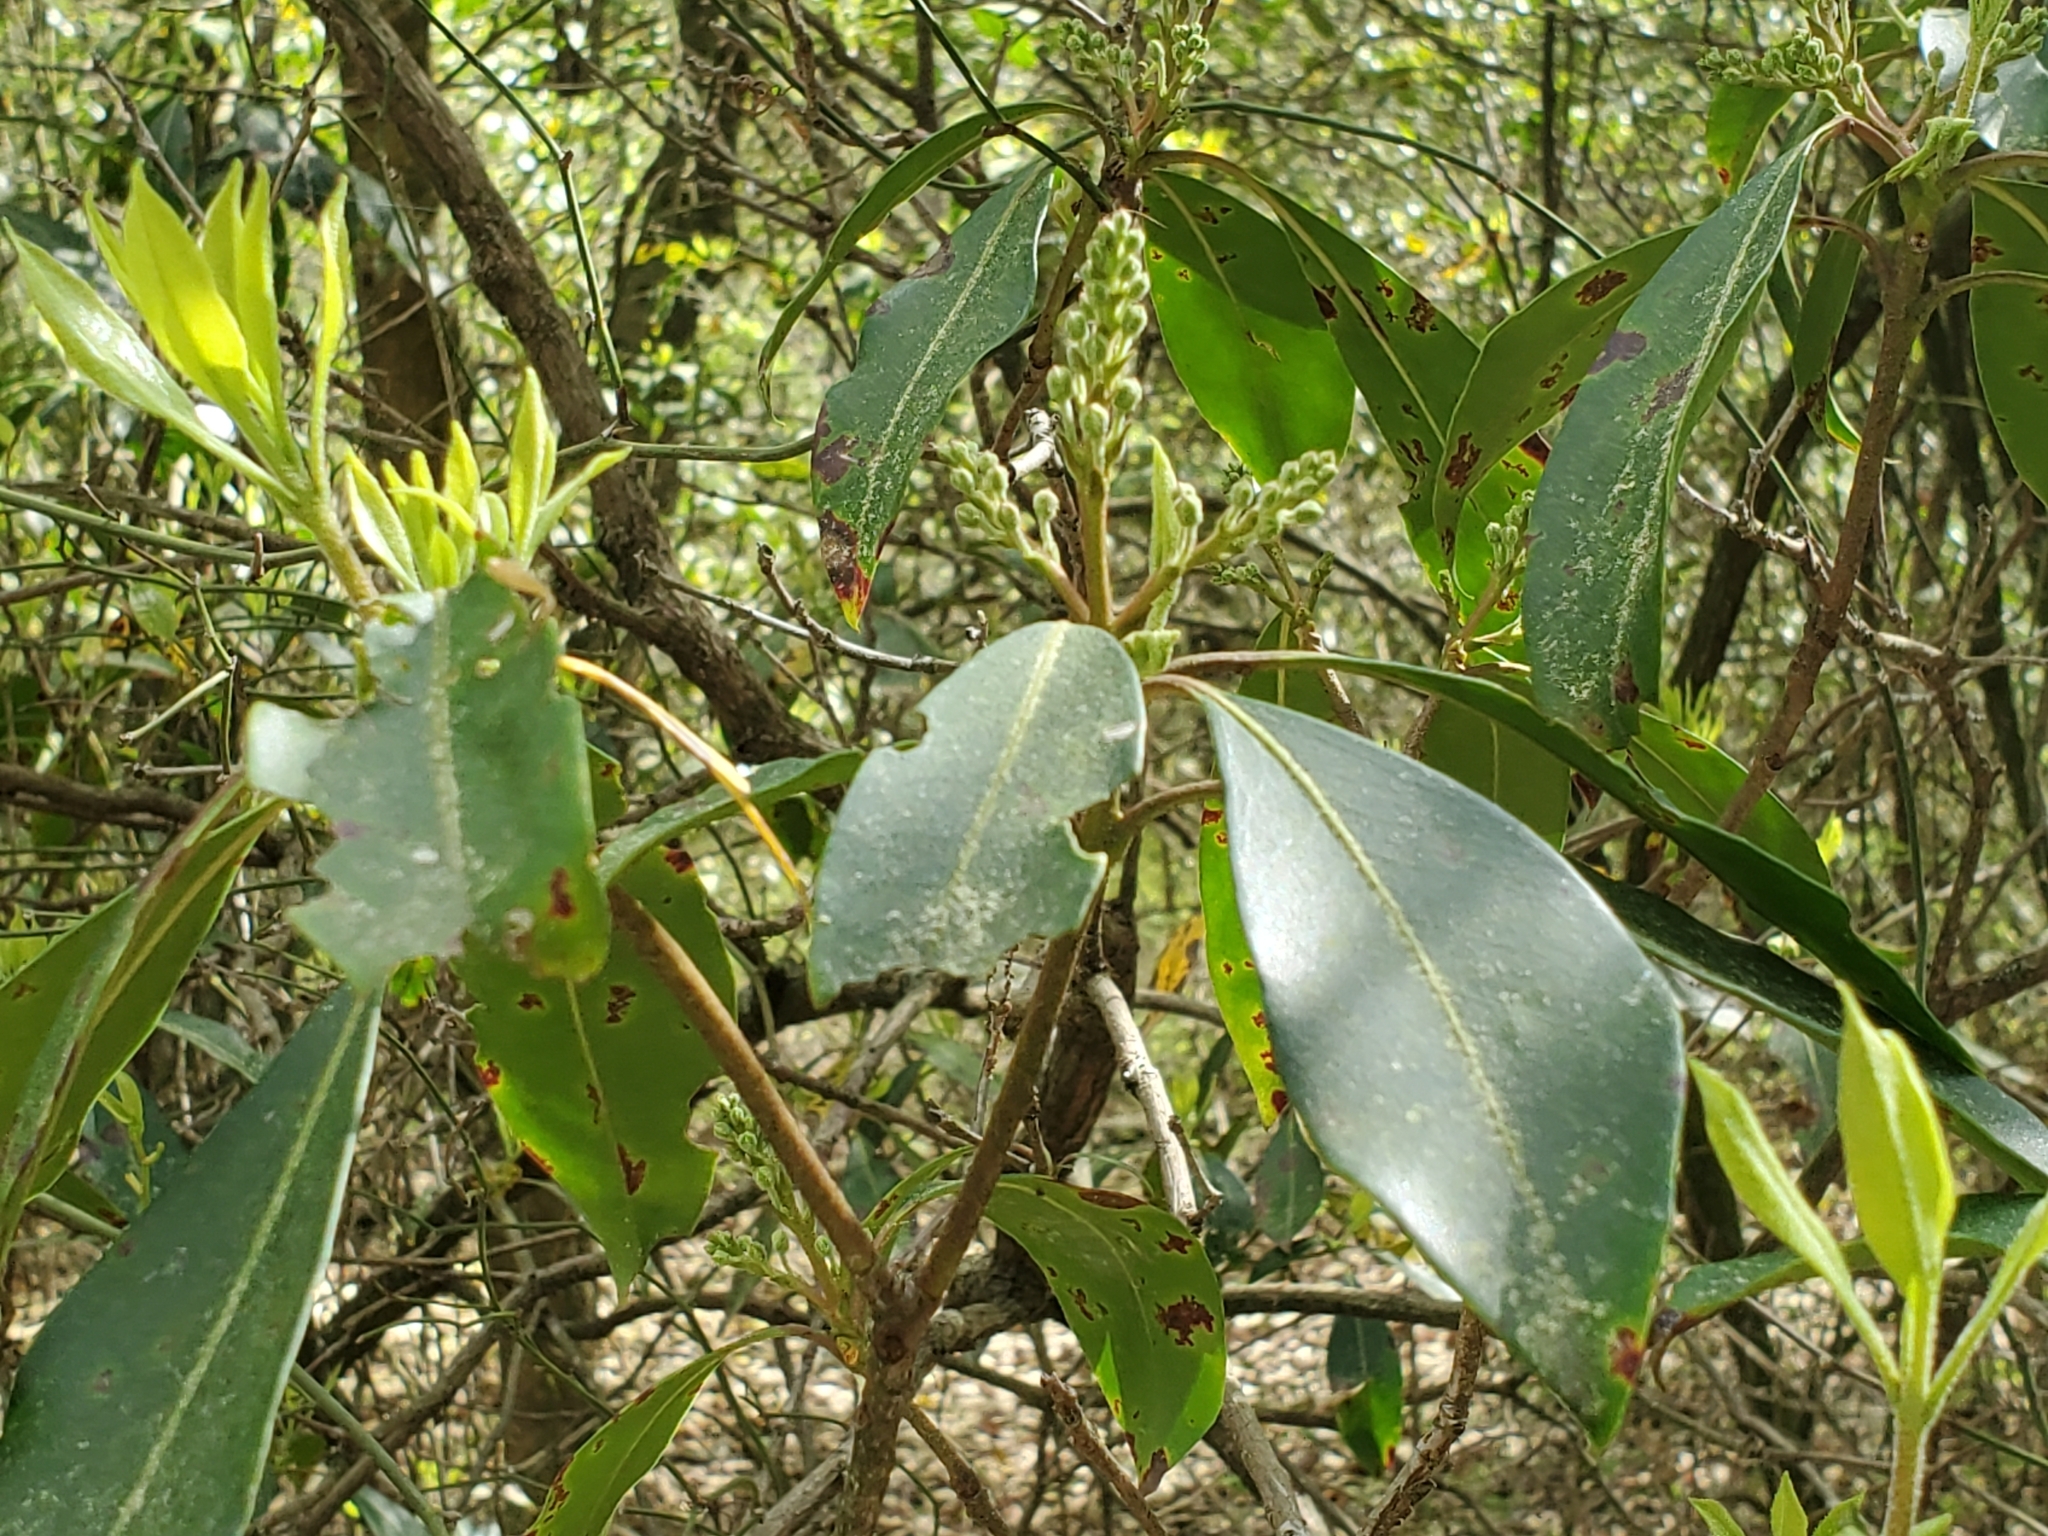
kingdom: Plantae
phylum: Tracheophyta
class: Magnoliopsida
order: Ericales
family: Ericaceae
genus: Kalmia
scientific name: Kalmia latifolia
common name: Mountain-laurel
